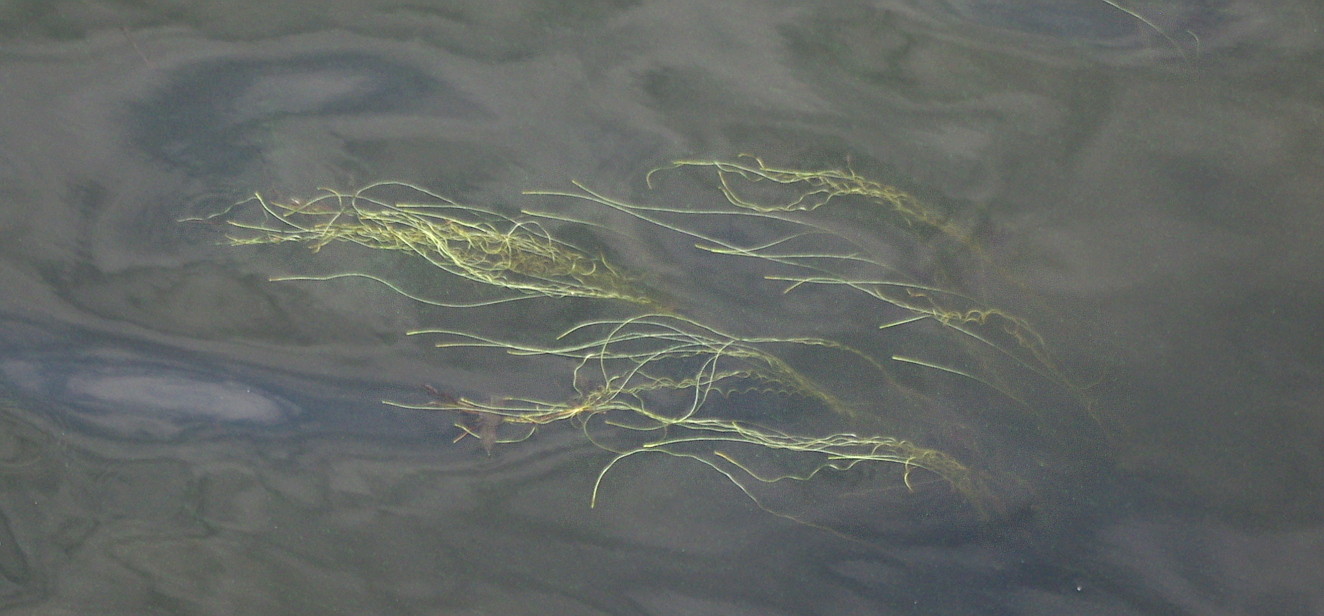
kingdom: Plantae
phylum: Tracheophyta
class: Liliopsida
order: Alismatales
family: Hydrocharitaceae
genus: Vallisneria
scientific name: Vallisneria spiralis
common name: Tapegrass
